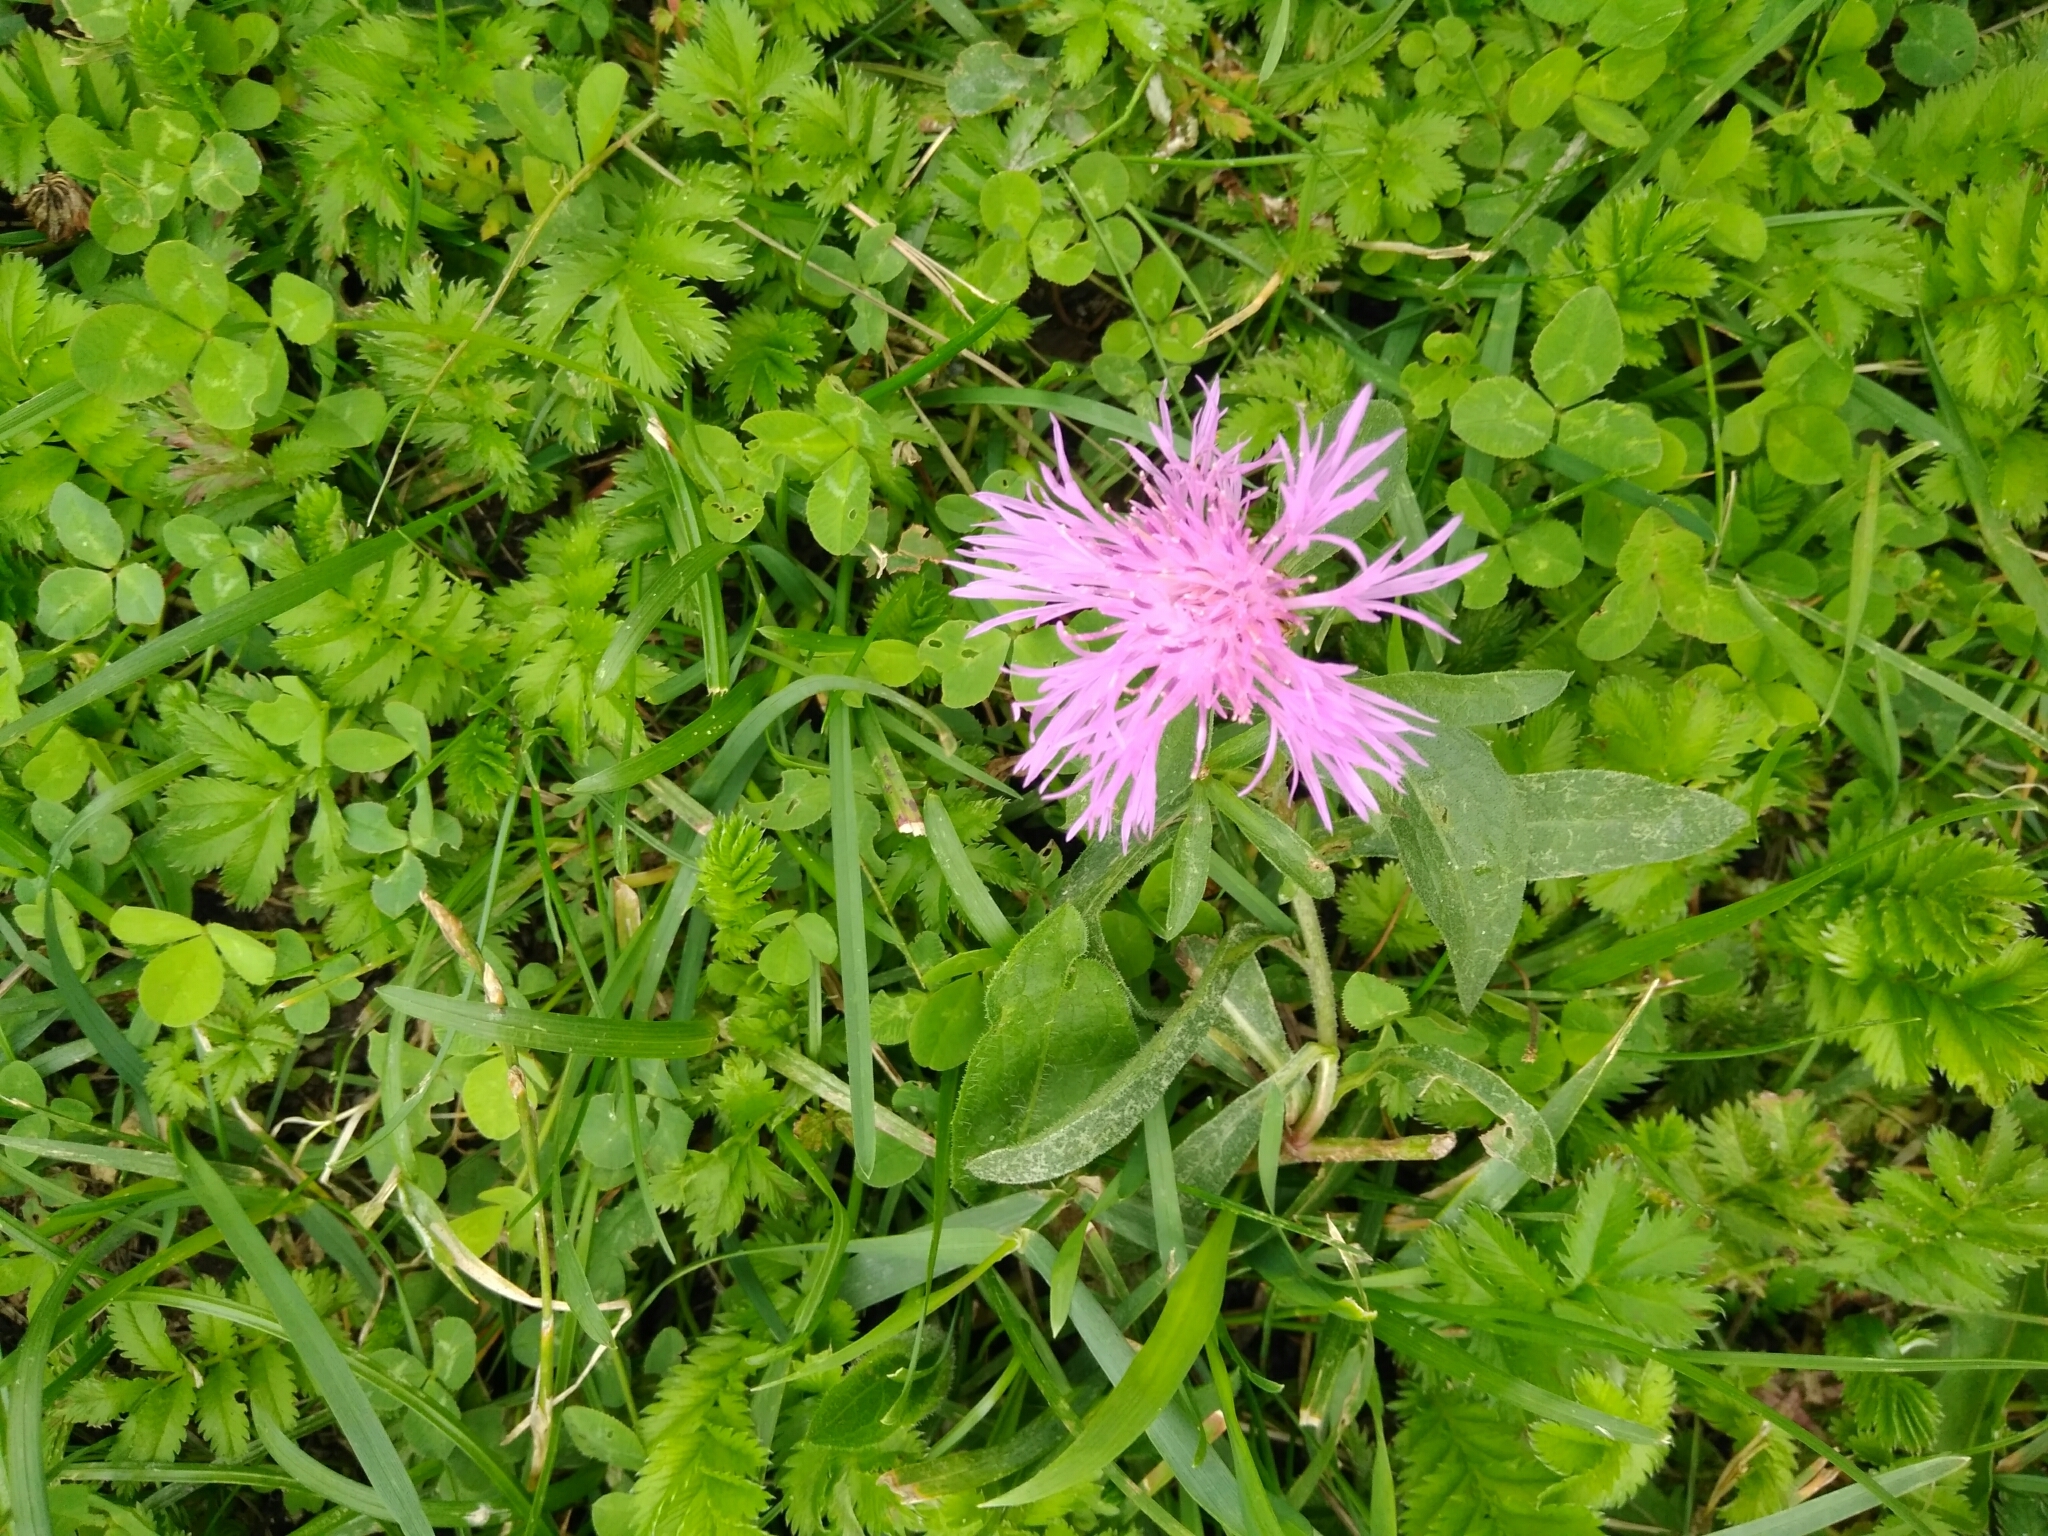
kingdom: Plantae
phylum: Tracheophyta
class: Magnoliopsida
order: Asterales
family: Asteraceae
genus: Centaurea
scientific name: Centaurea jacea
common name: Brown knapweed
